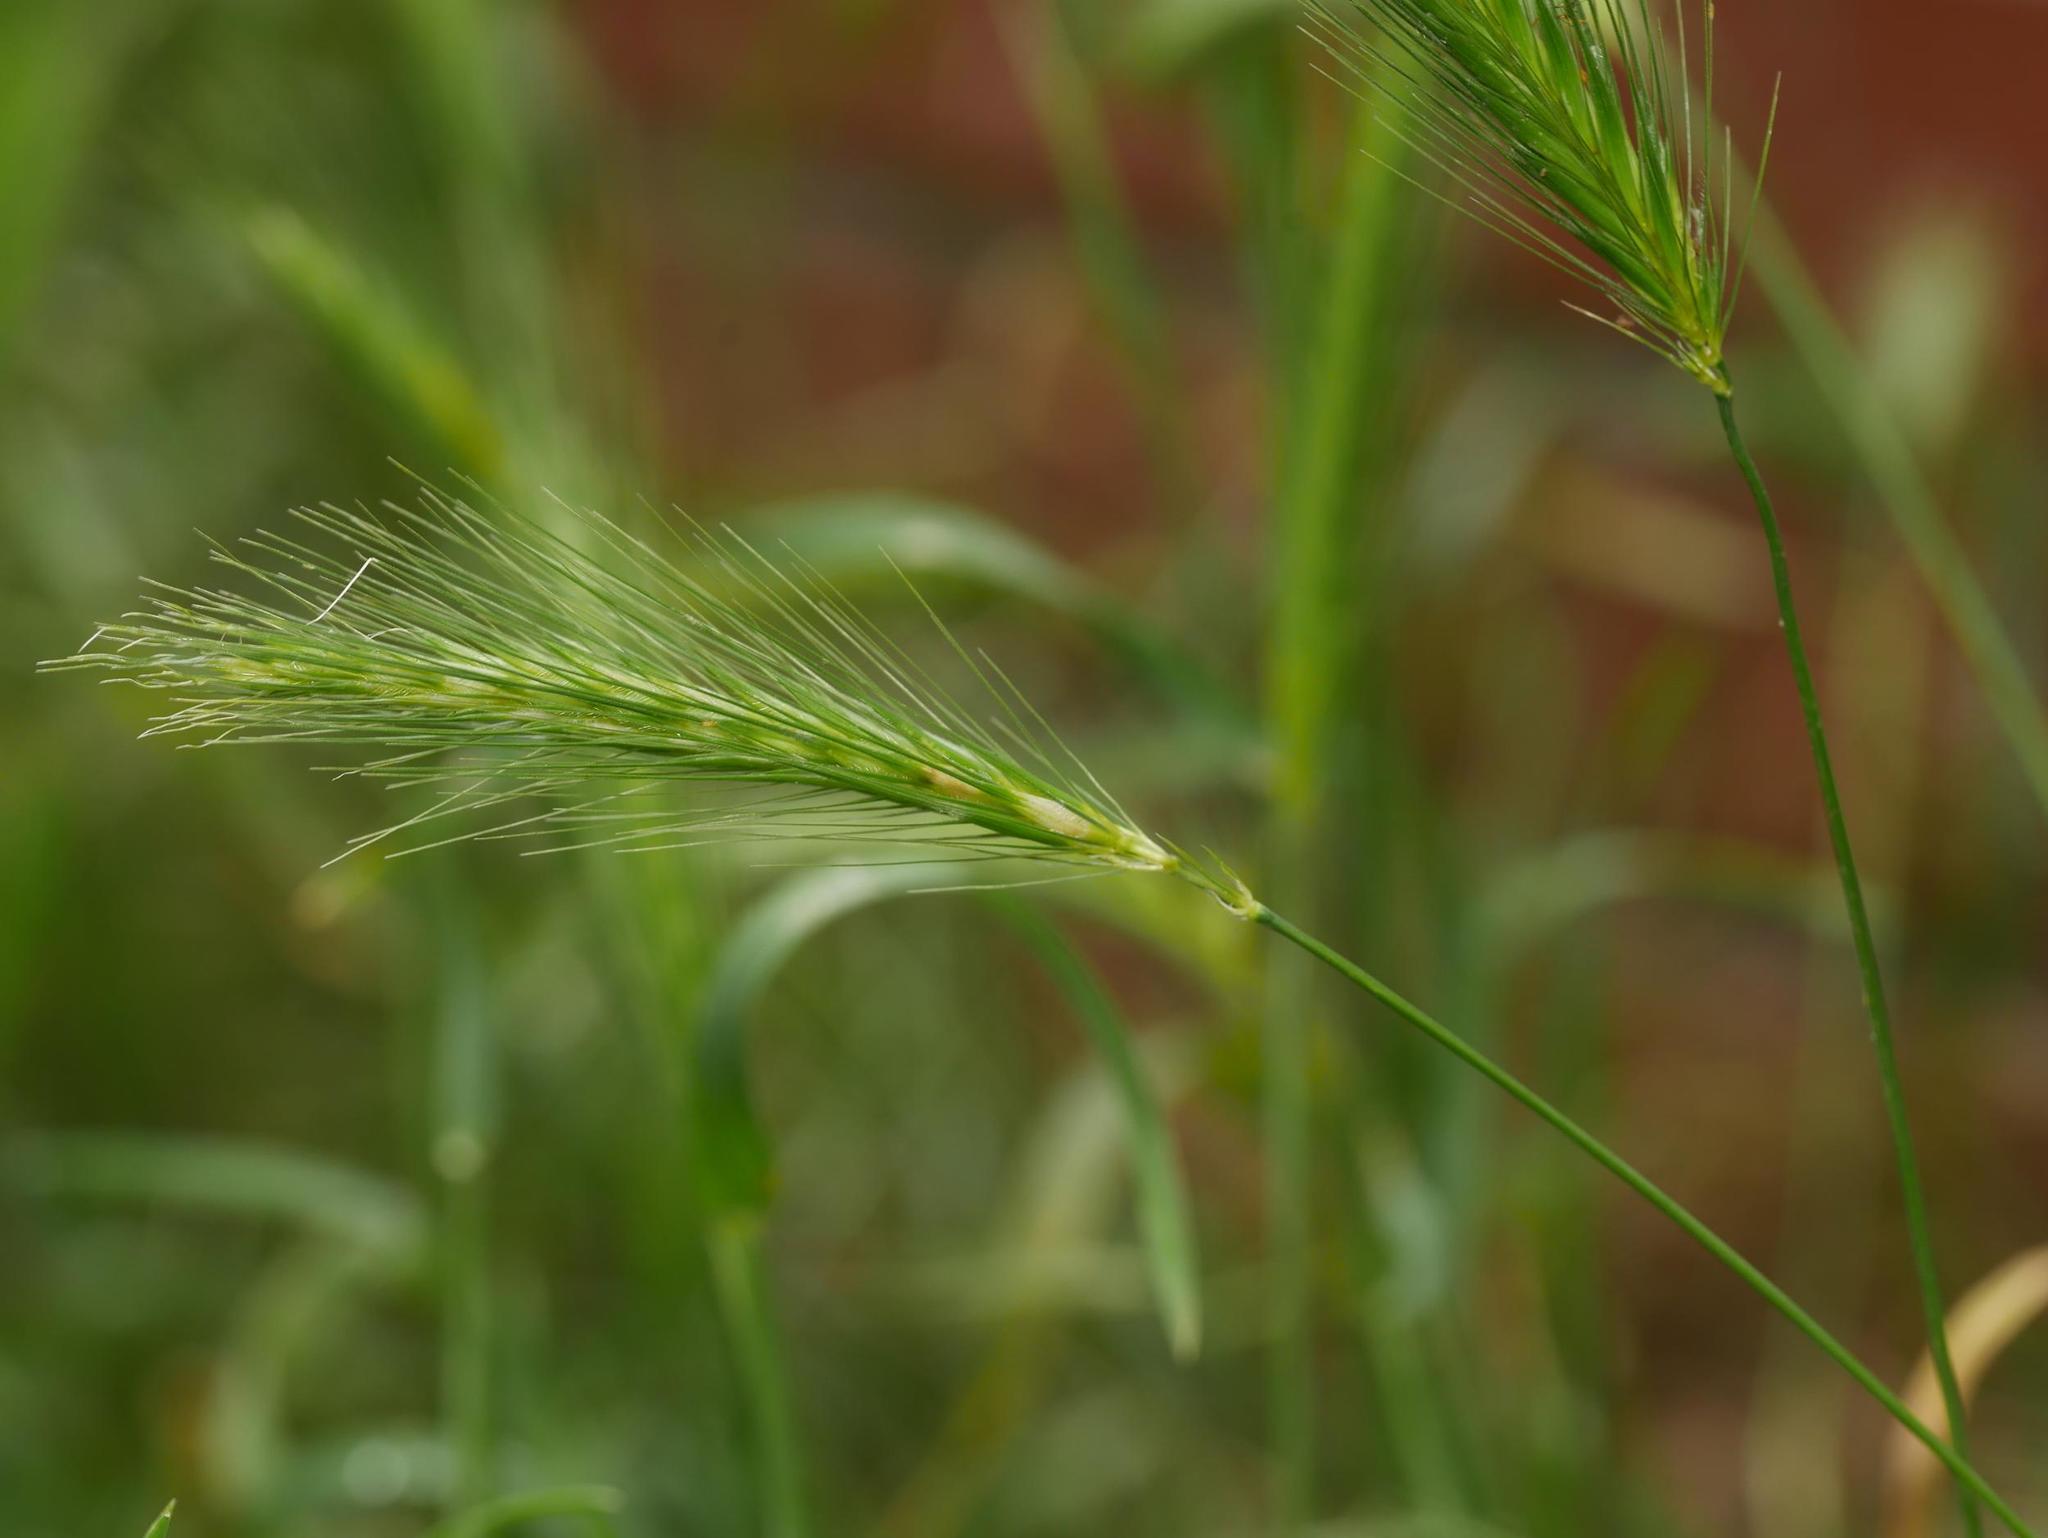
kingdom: Plantae
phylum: Tracheophyta
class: Liliopsida
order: Poales
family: Poaceae
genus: Hordeum
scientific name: Hordeum murinum
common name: Wall barley
